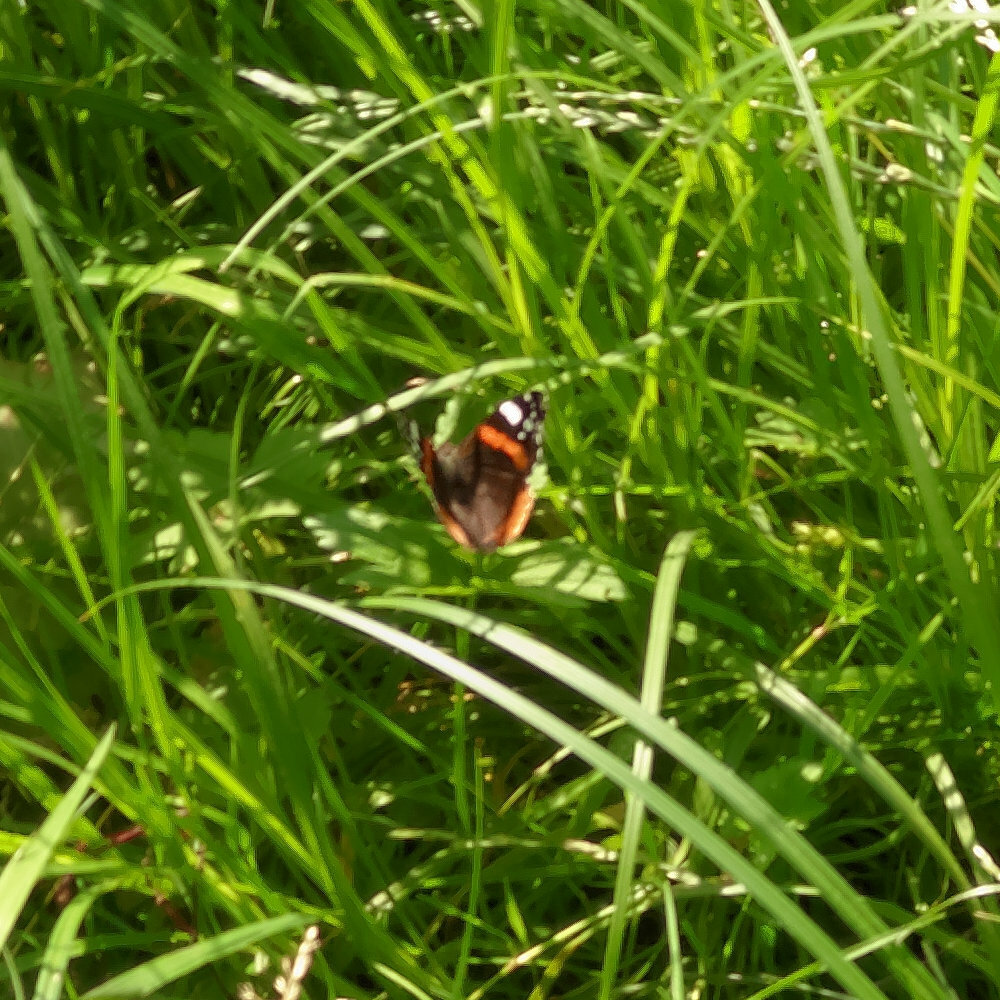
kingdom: Animalia
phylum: Arthropoda
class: Insecta
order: Lepidoptera
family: Nymphalidae
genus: Vanessa
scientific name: Vanessa atalanta
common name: Red admiral
